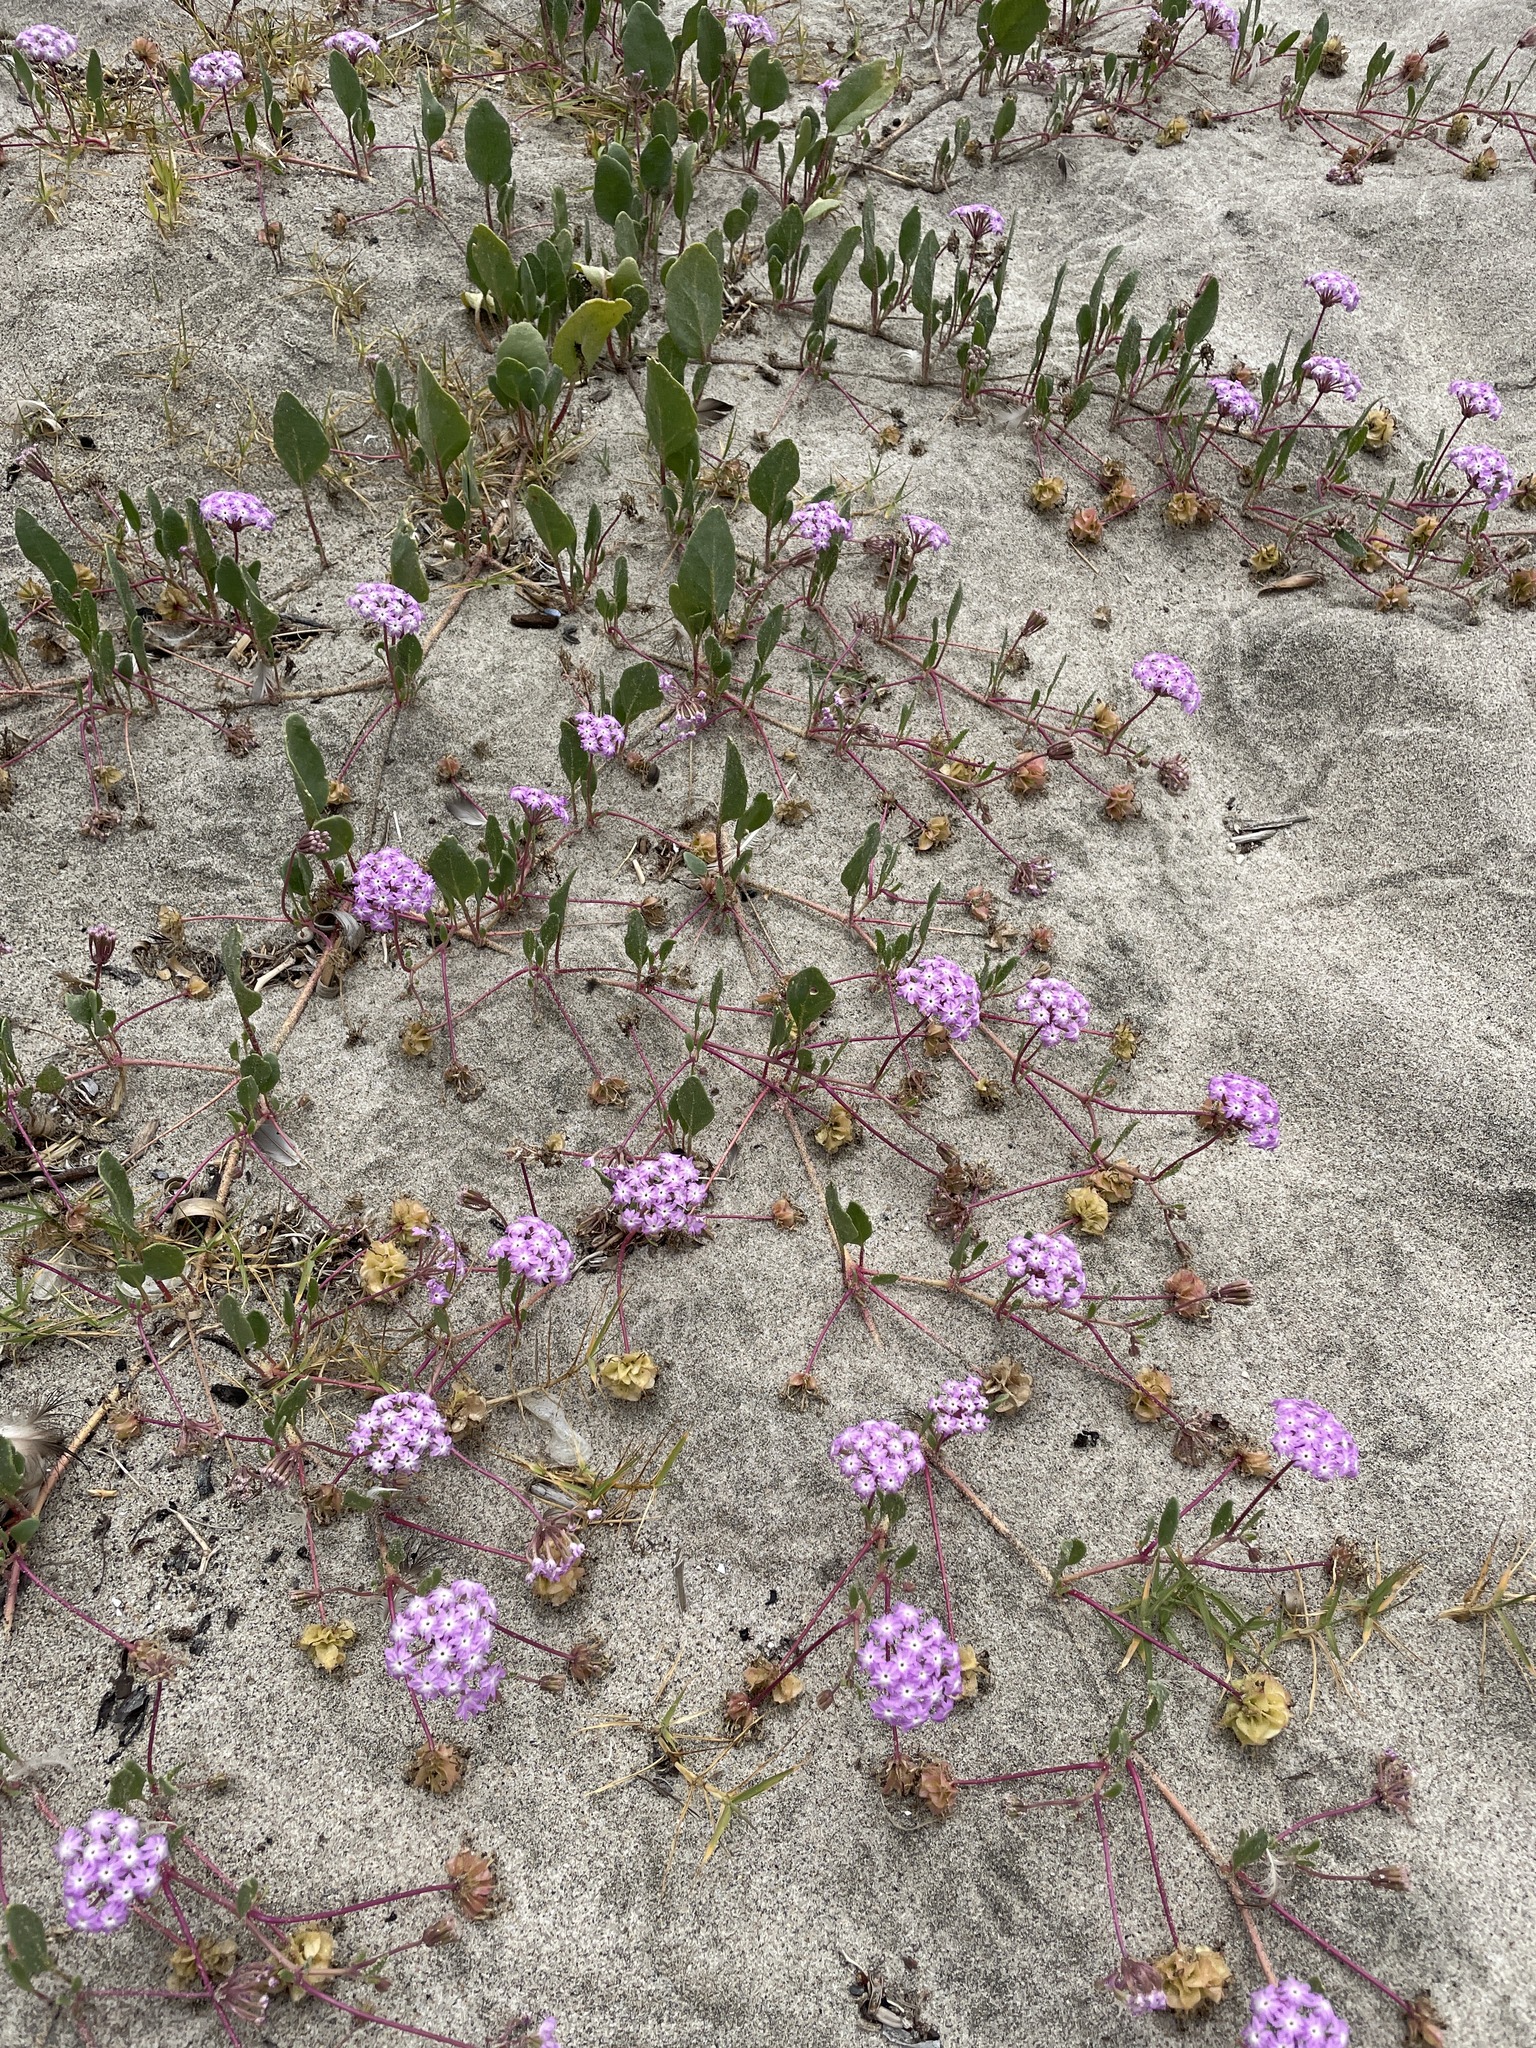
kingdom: Plantae
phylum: Tracheophyta
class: Magnoliopsida
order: Caryophyllales
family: Nyctaginaceae
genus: Abronia
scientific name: Abronia umbellata
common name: Sand-verbena
